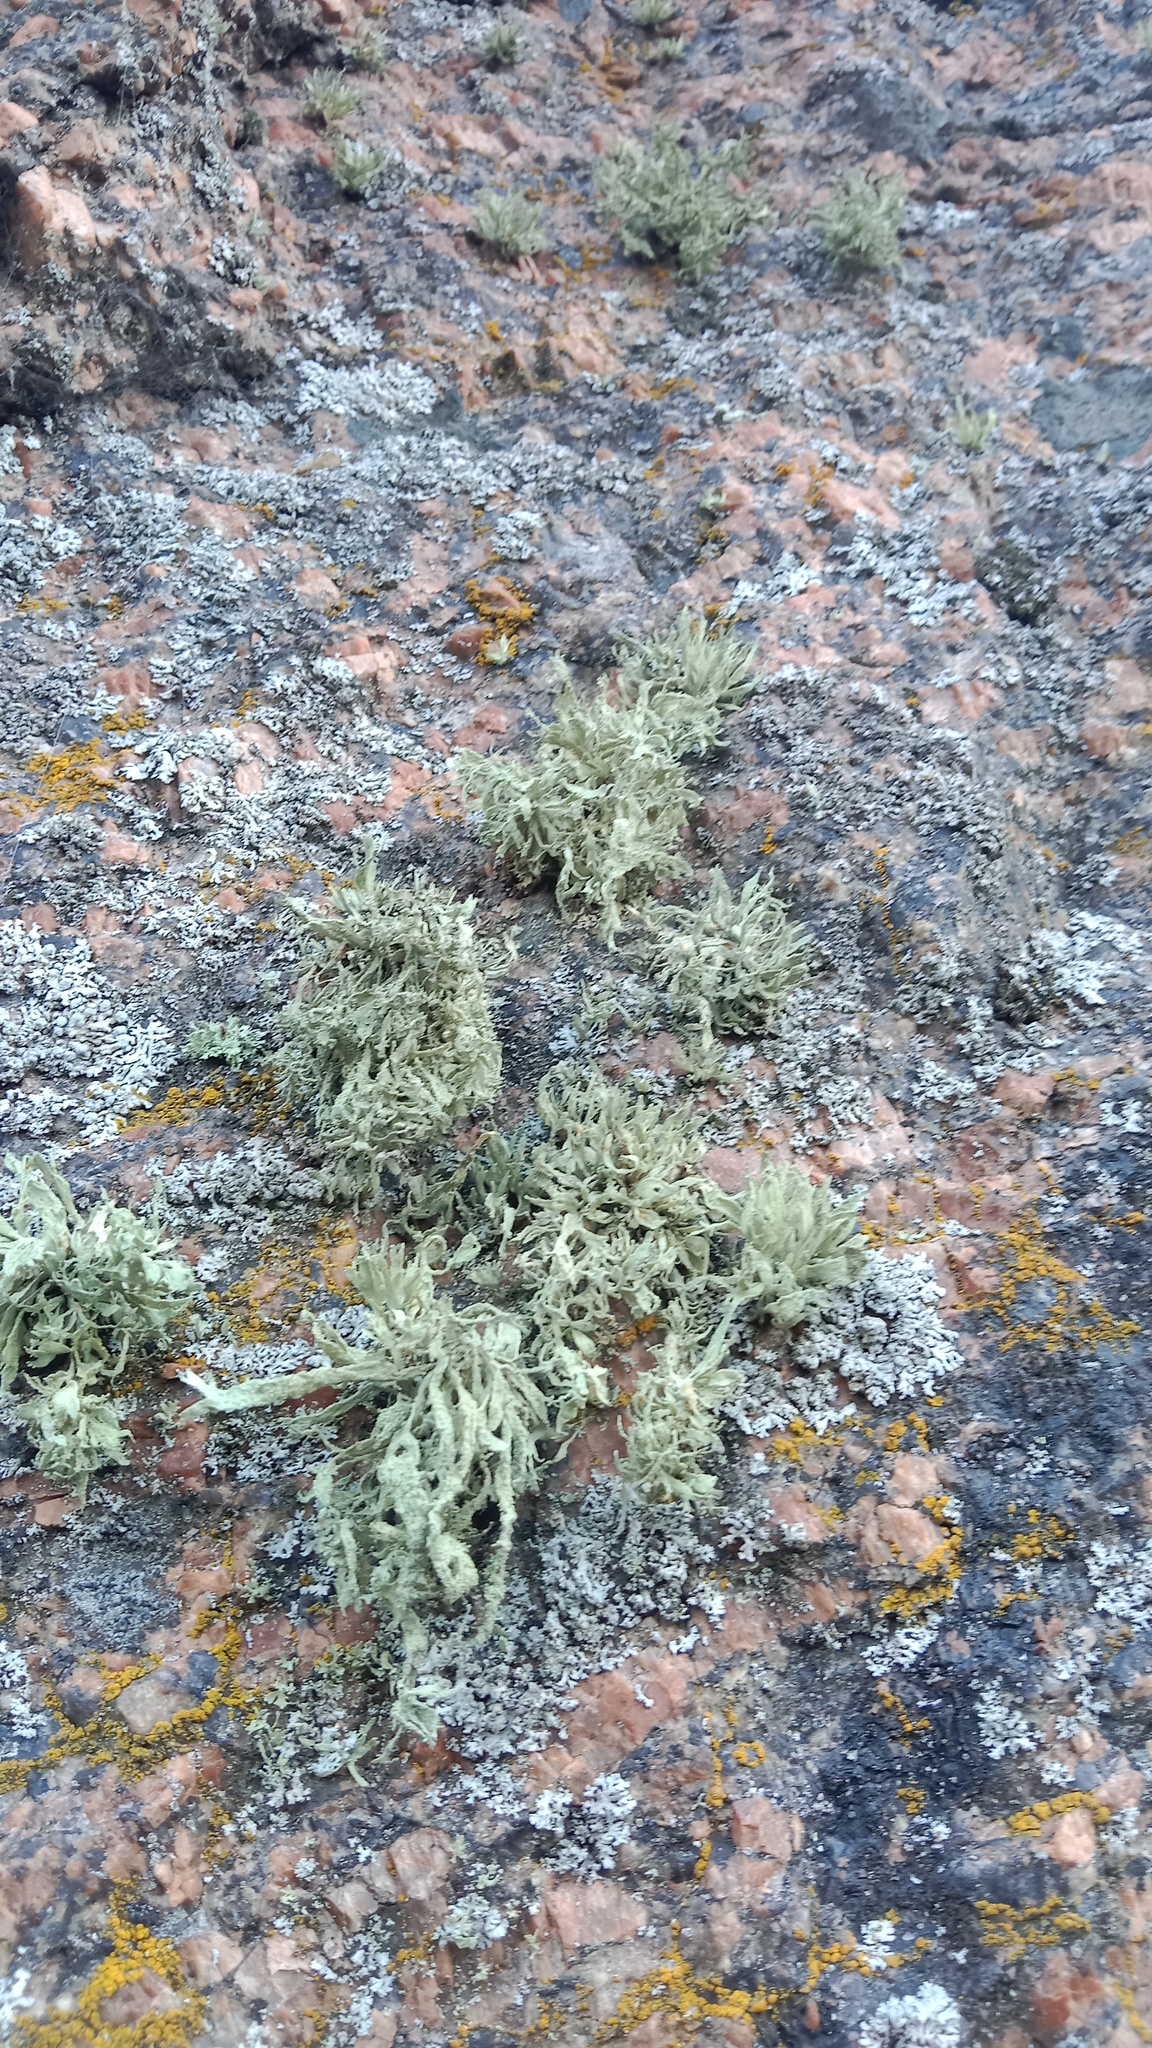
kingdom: Fungi
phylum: Ascomycota
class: Lecanoromycetes
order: Lecanorales
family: Ramalinaceae
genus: Ramalina
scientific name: Ramalina polymorpha
